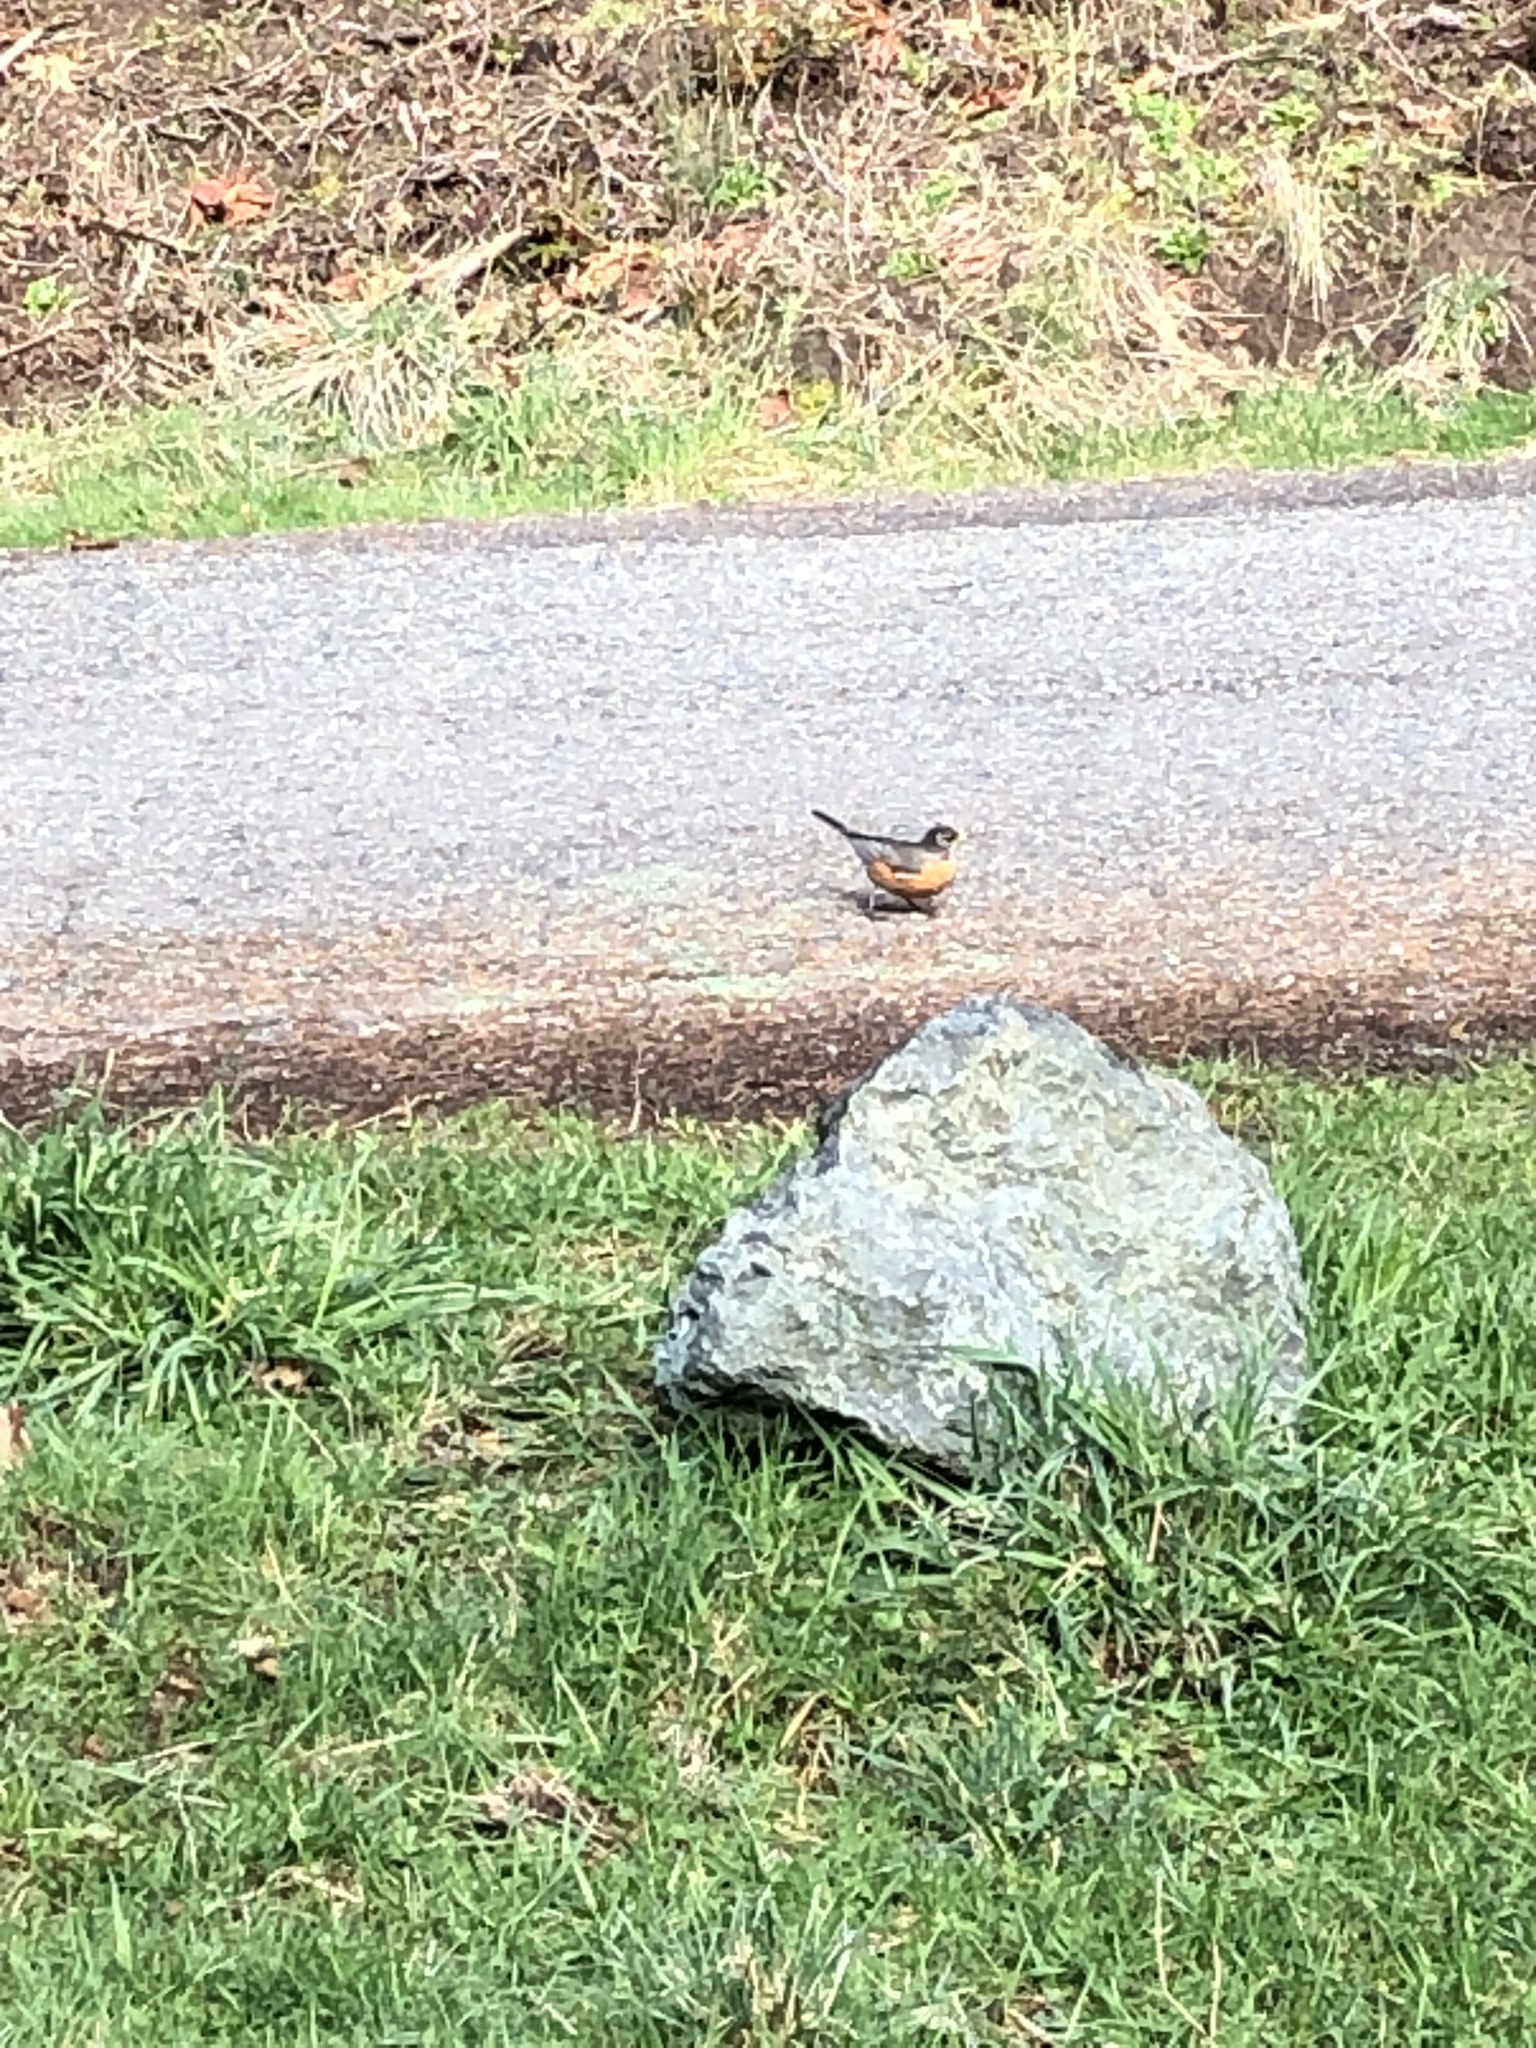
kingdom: Animalia
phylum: Chordata
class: Aves
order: Passeriformes
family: Turdidae
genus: Turdus
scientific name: Turdus migratorius
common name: American robin
